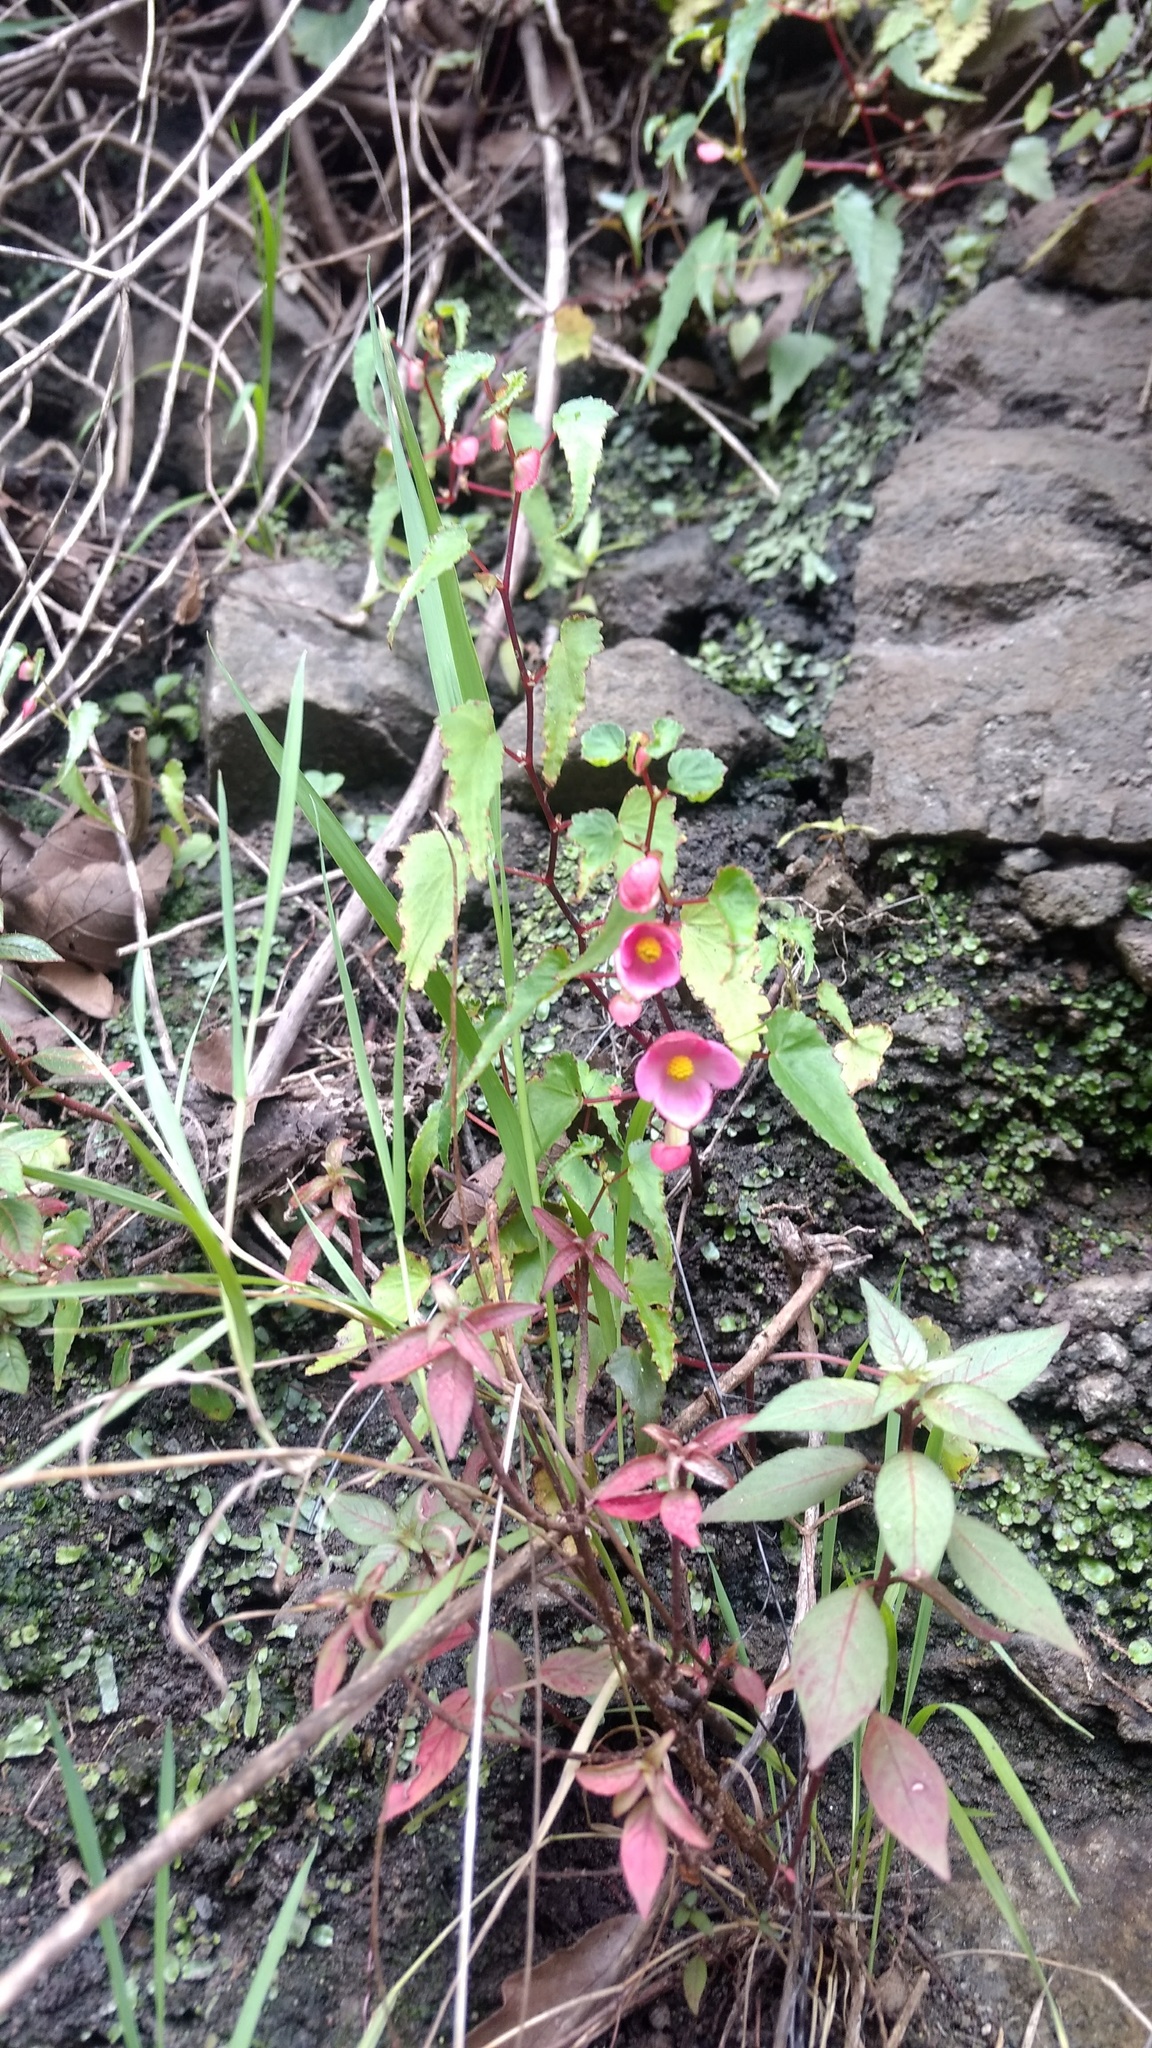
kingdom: Plantae
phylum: Tracheophyta
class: Magnoliopsida
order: Cucurbitales
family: Begoniaceae
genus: Begonia
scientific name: Begonia gracilis
